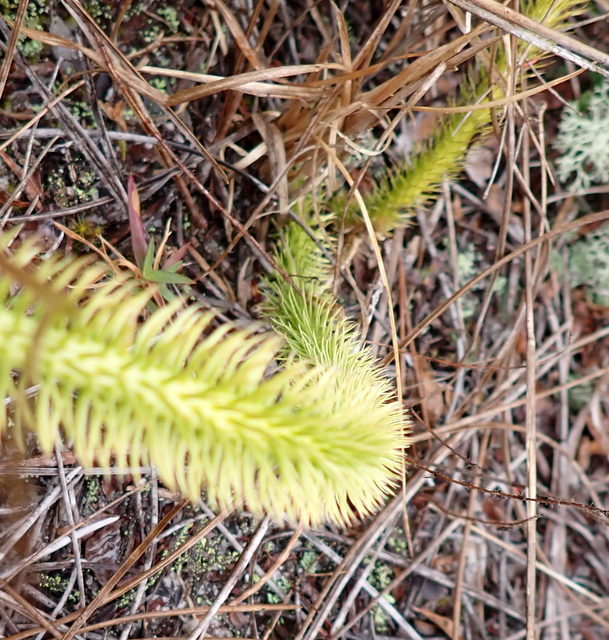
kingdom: Plantae
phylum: Tracheophyta
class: Lycopodiopsida
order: Lycopodiales
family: Lycopodiaceae
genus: Lycopodiella
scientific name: Lycopodiella alopecuroides
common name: Foxtail clubmoss
